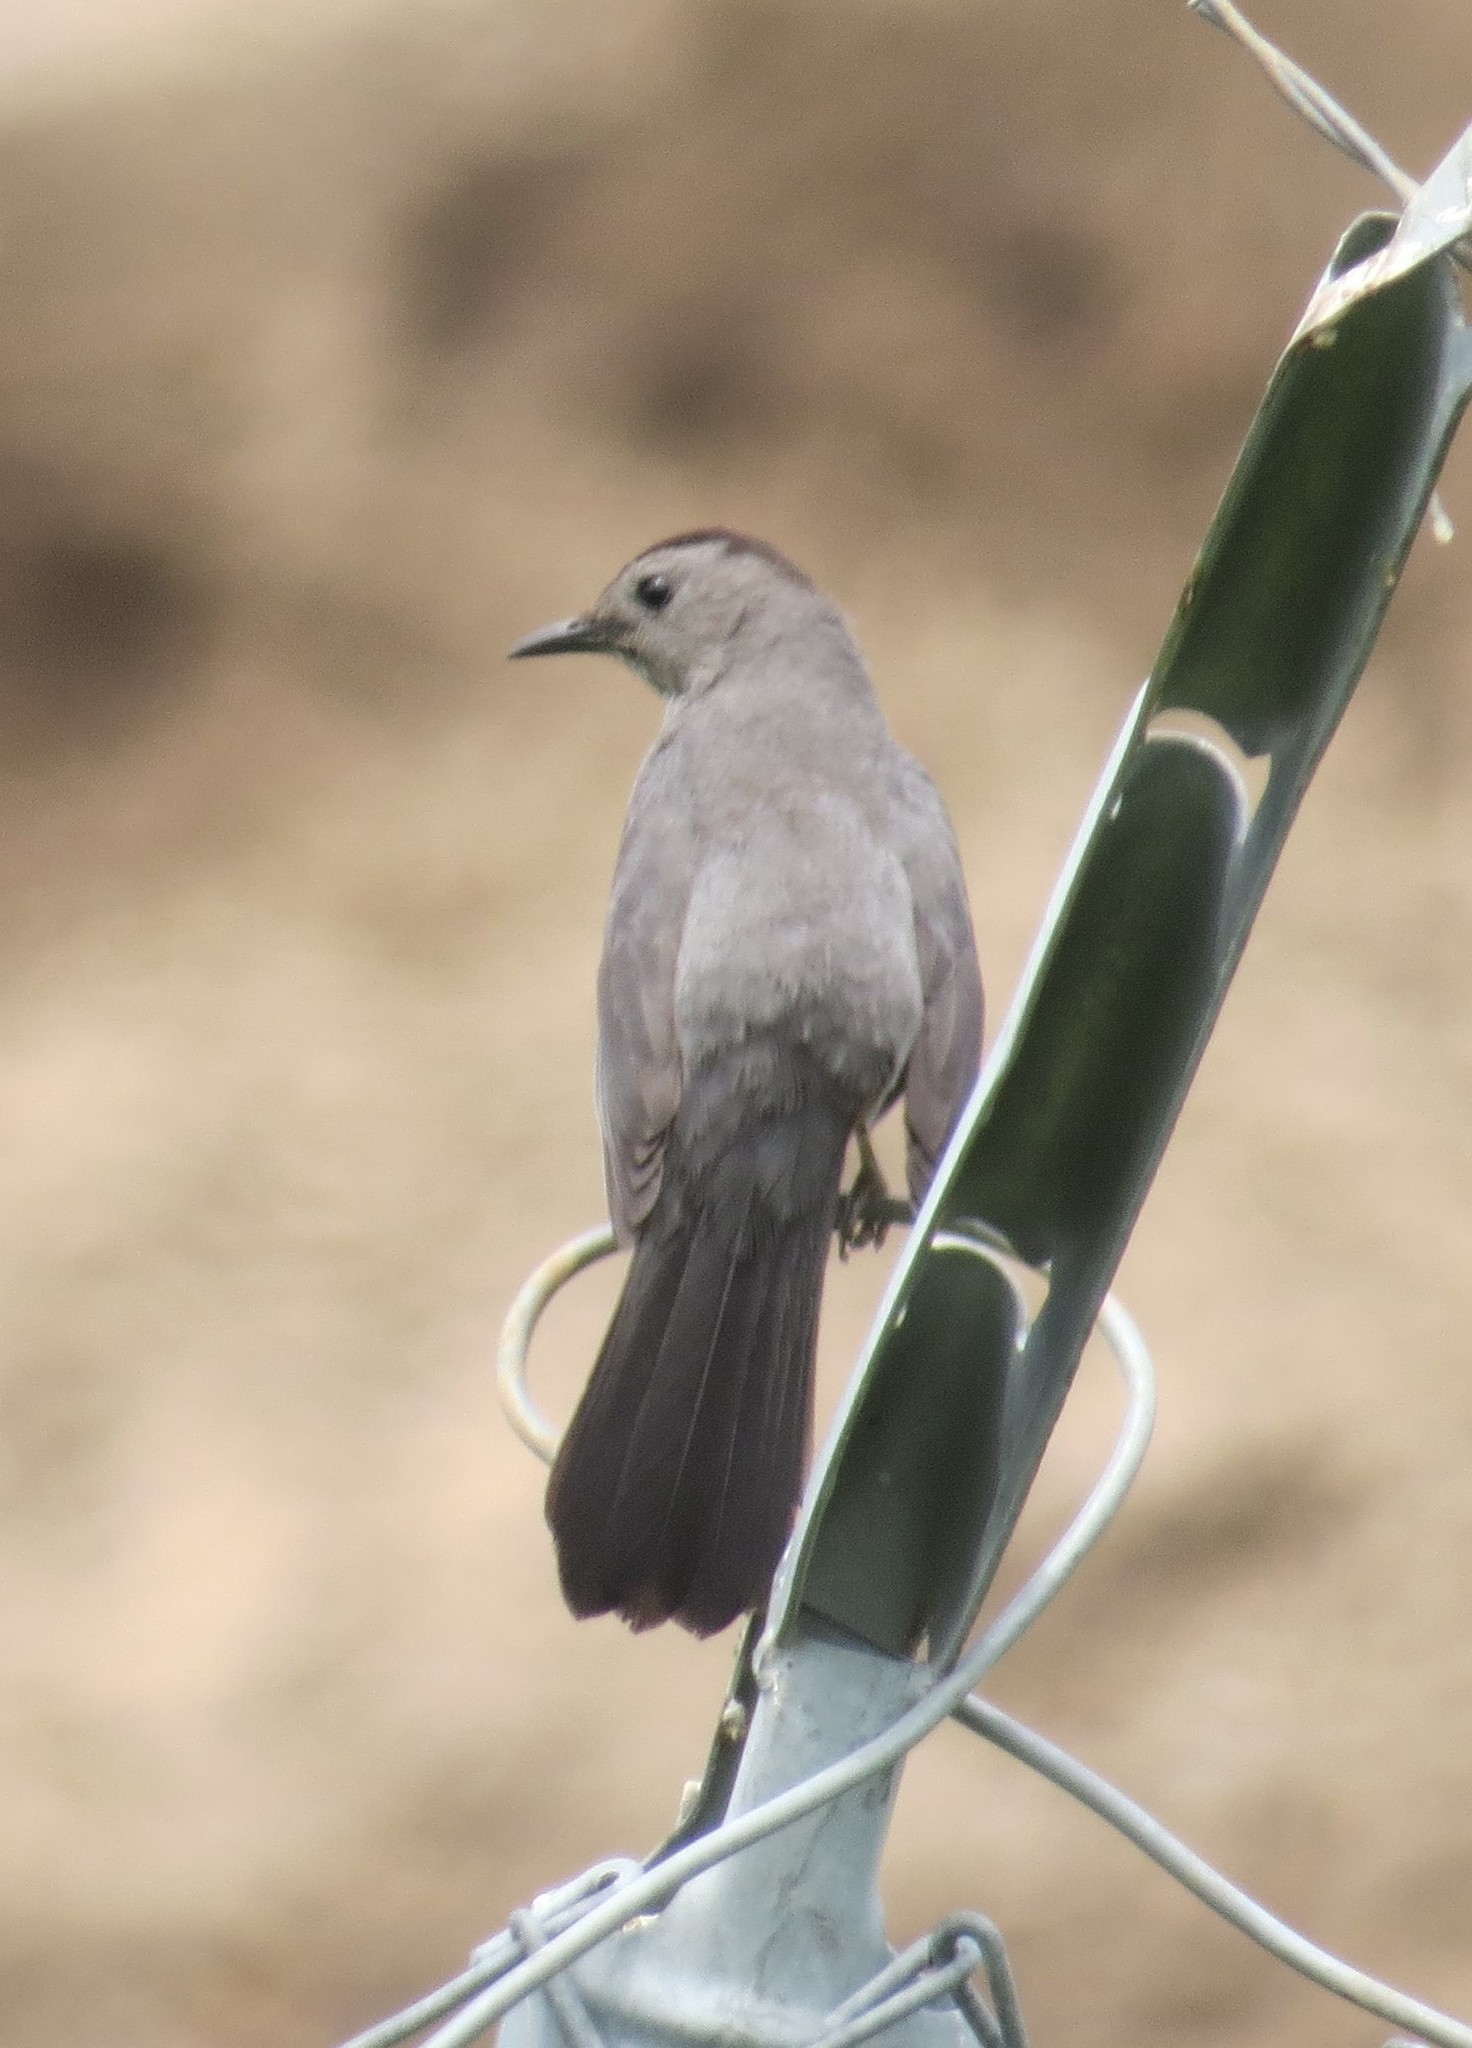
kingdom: Animalia
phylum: Chordata
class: Aves
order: Passeriformes
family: Mimidae
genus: Dumetella
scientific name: Dumetella carolinensis
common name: Gray catbird
